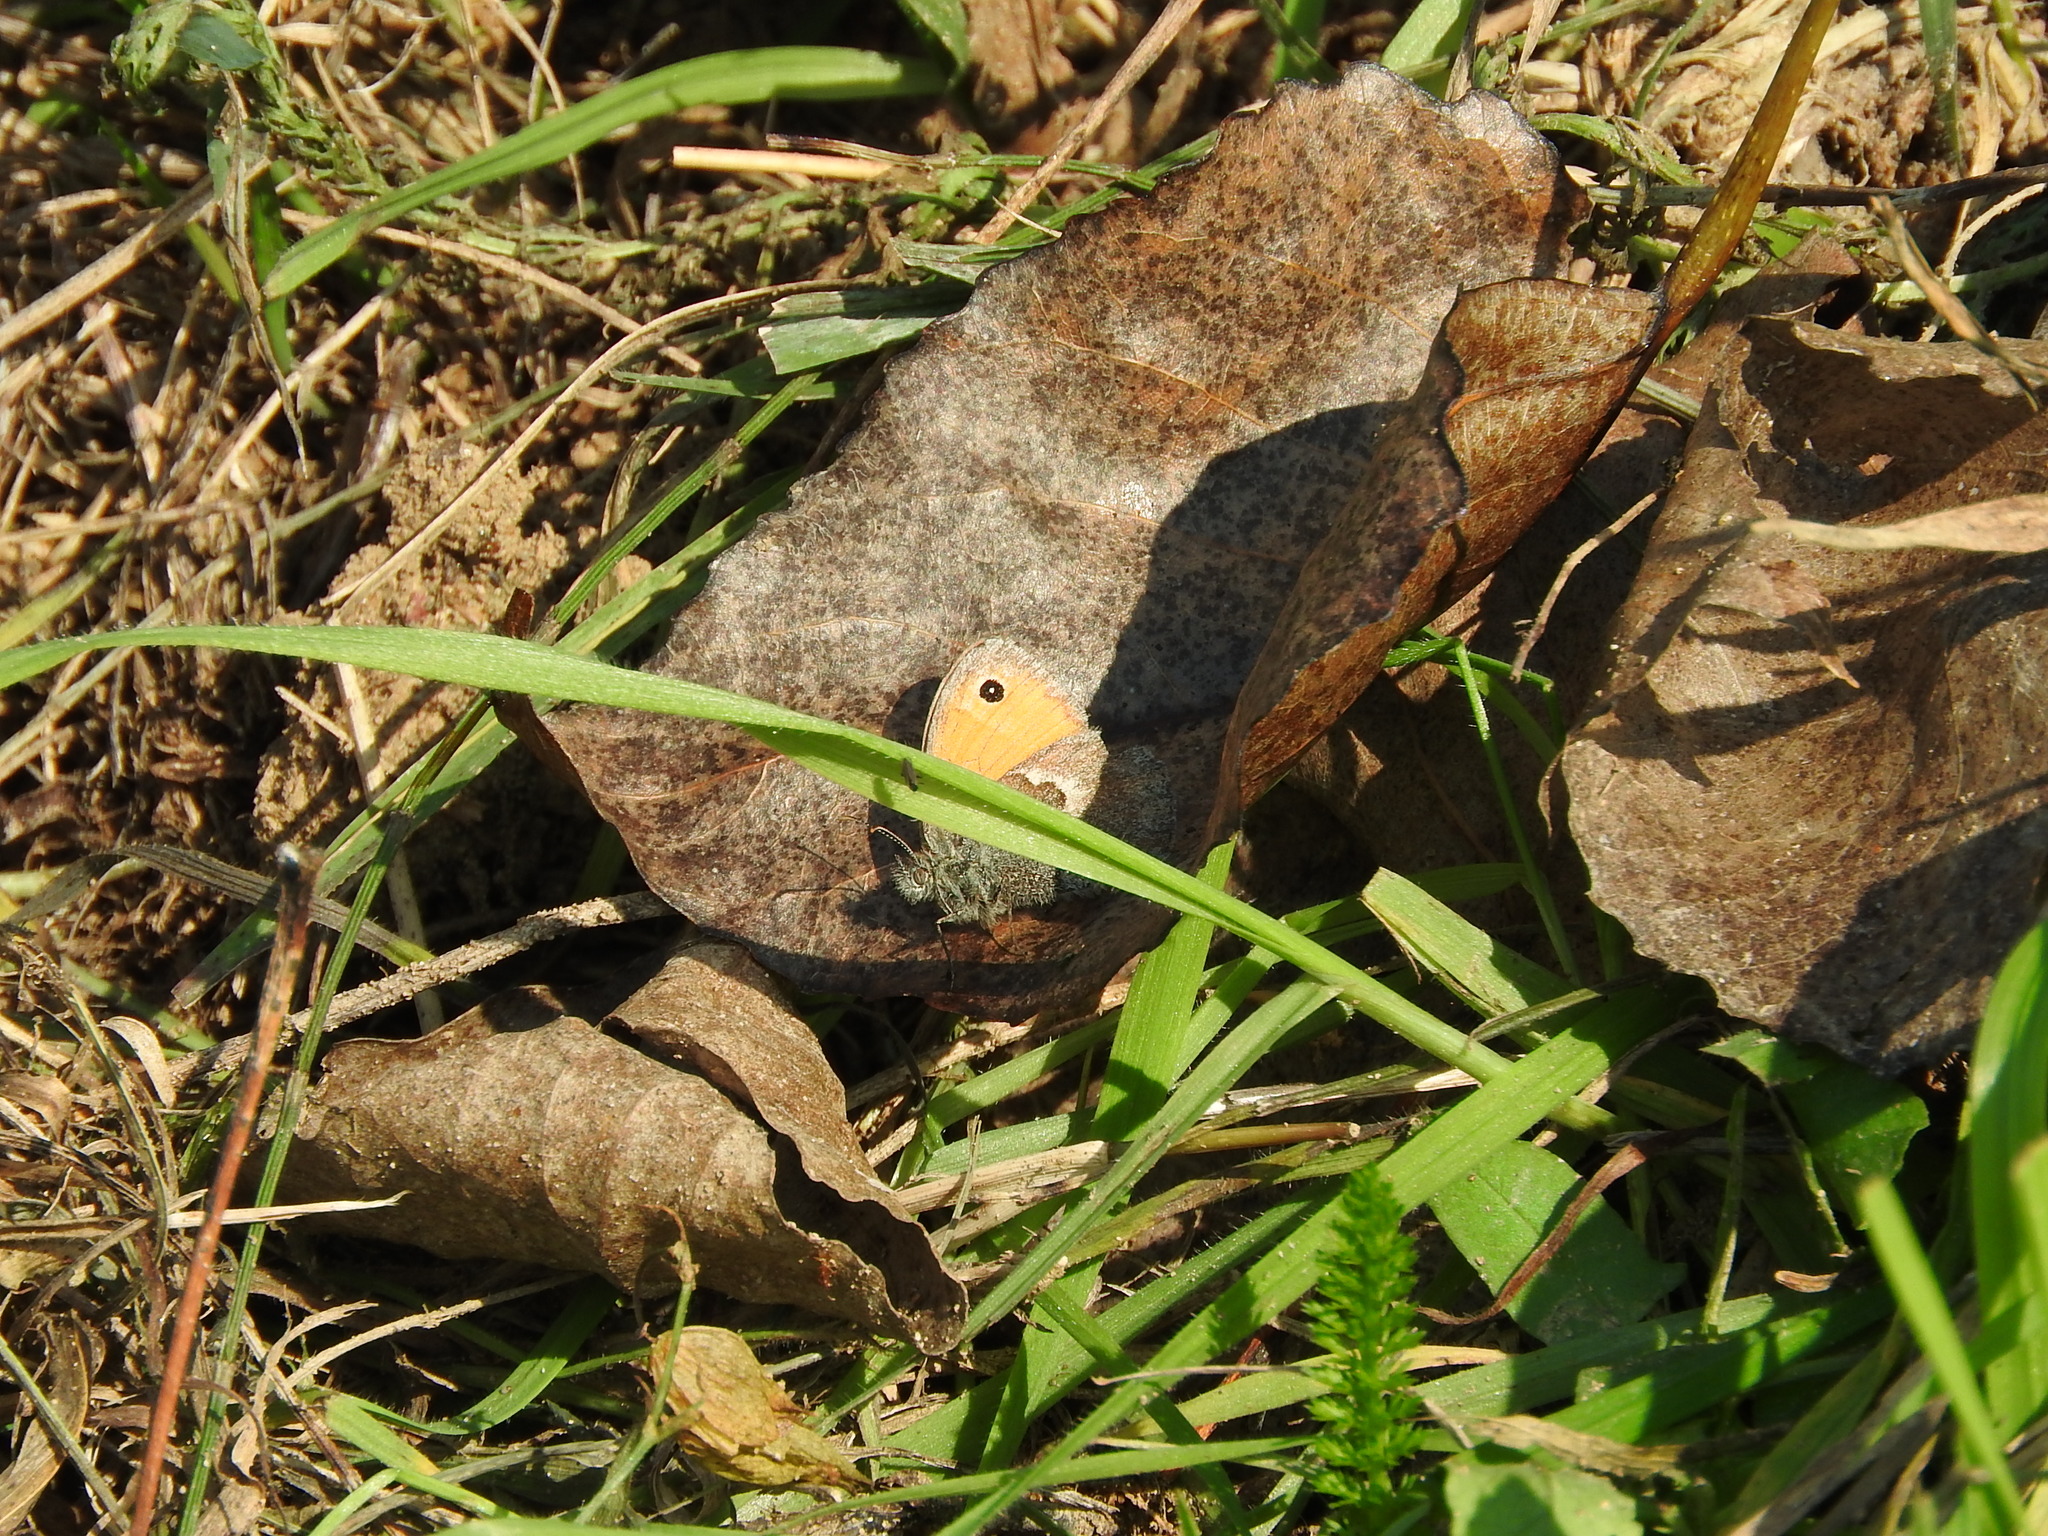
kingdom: Animalia
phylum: Arthropoda
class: Insecta
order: Lepidoptera
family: Nymphalidae
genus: Coenonympha
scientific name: Coenonympha pamphilus
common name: Small heath
